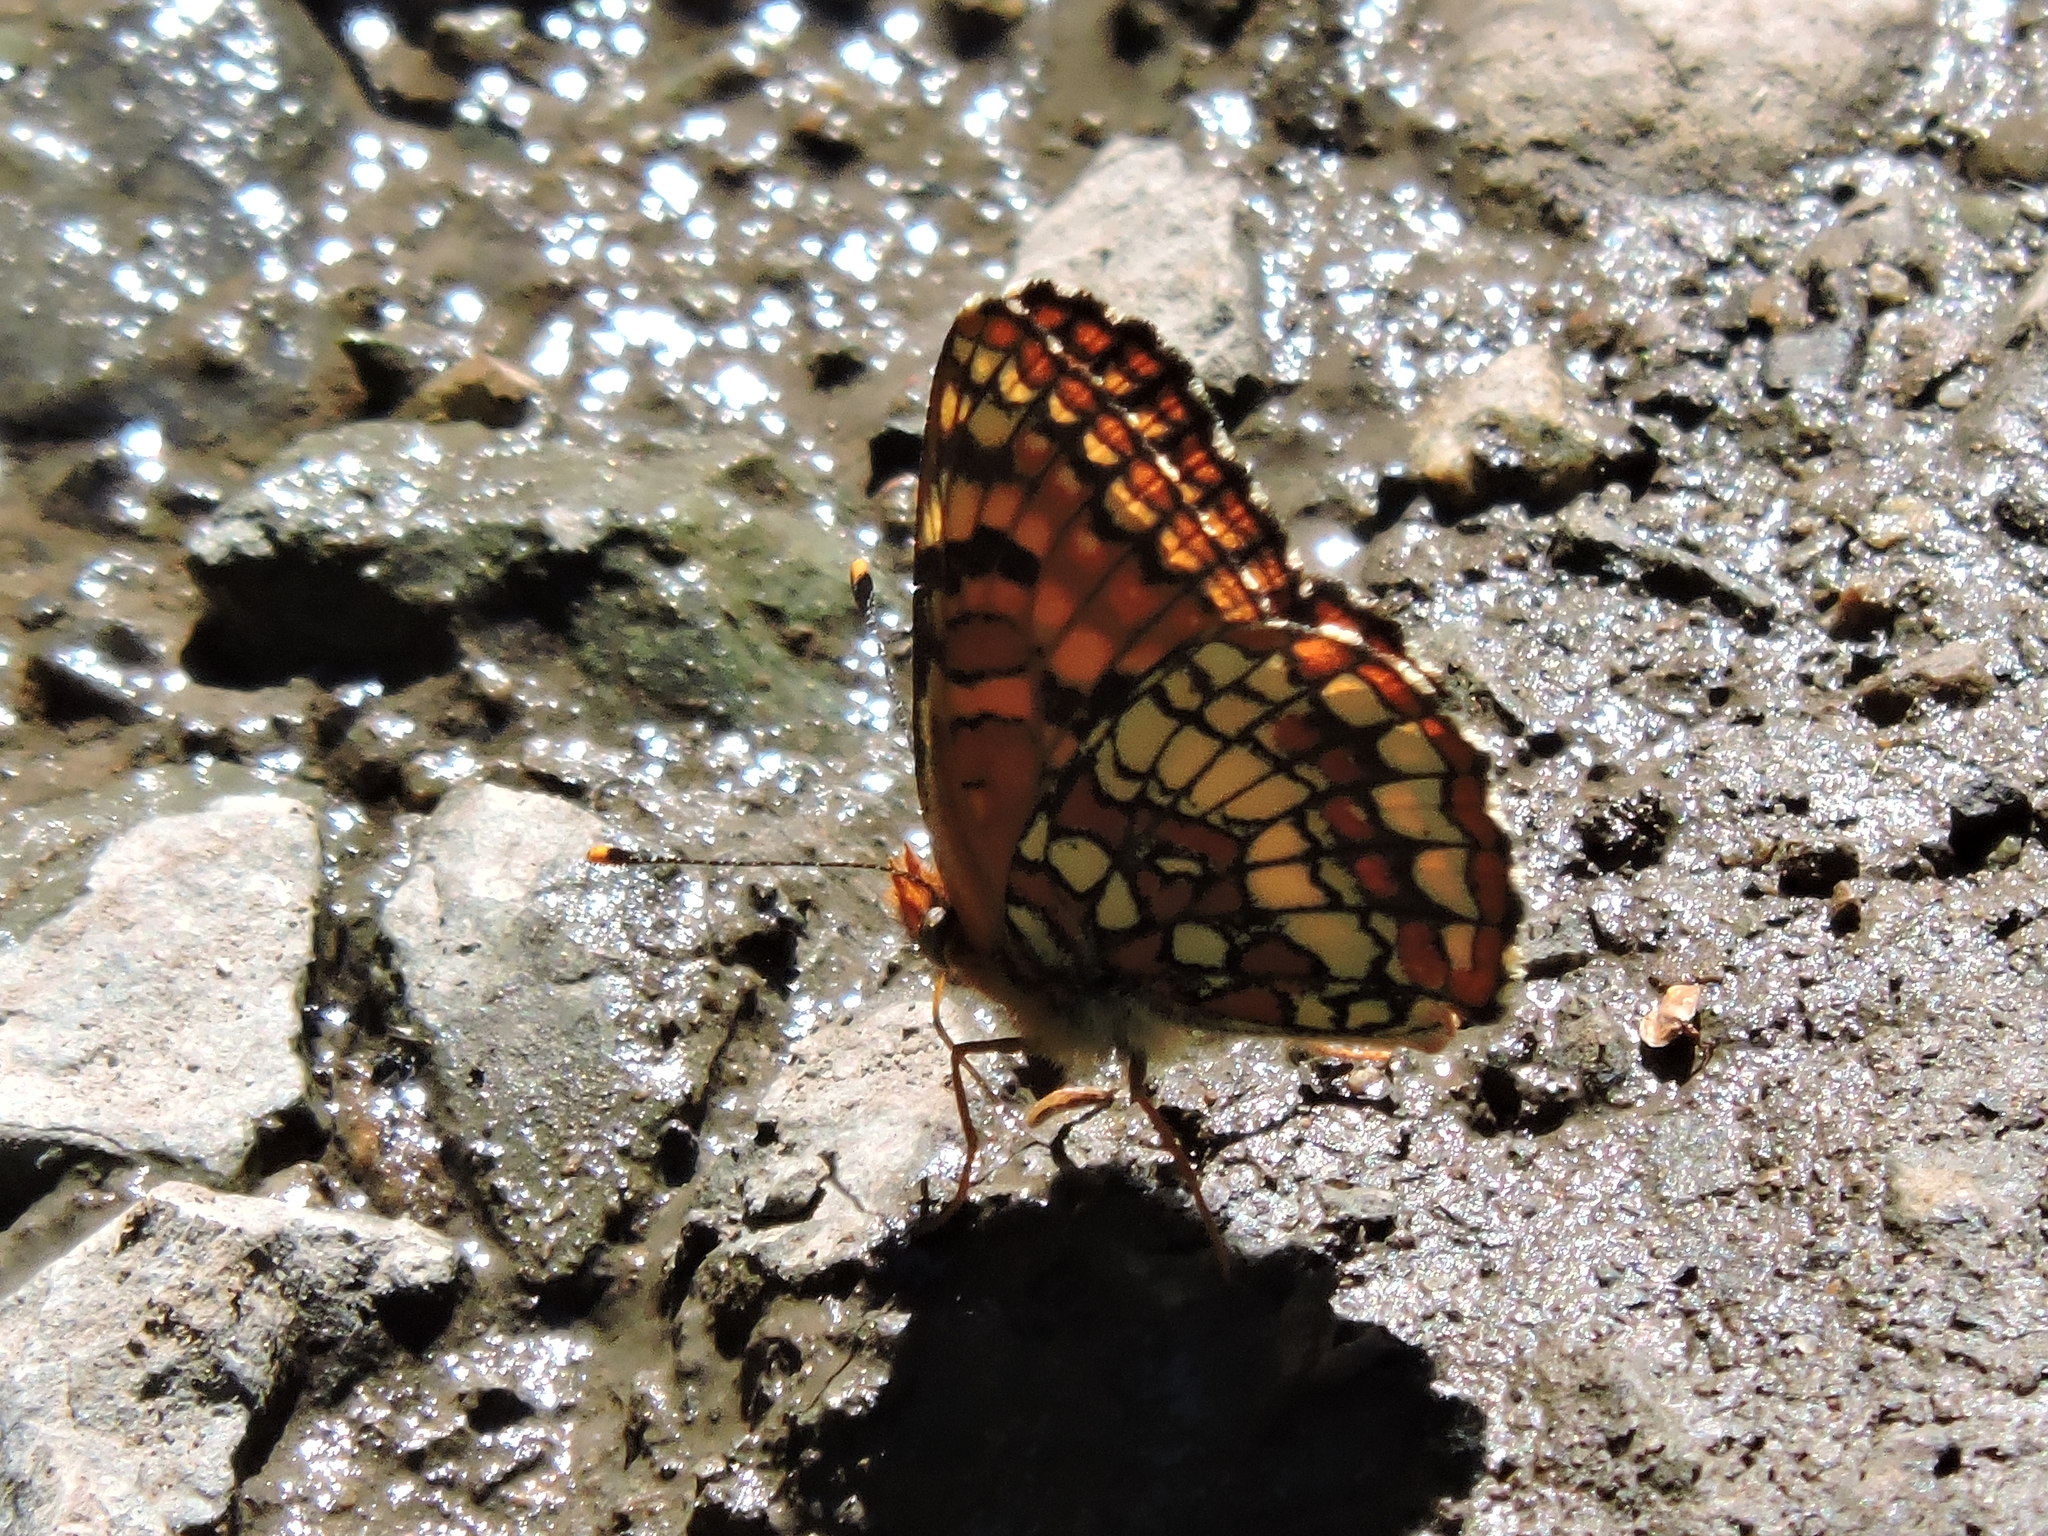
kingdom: Animalia
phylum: Arthropoda
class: Insecta
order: Lepidoptera
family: Nymphalidae
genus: Chlosyne
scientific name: Chlosyne palla
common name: Northern checkerspot
